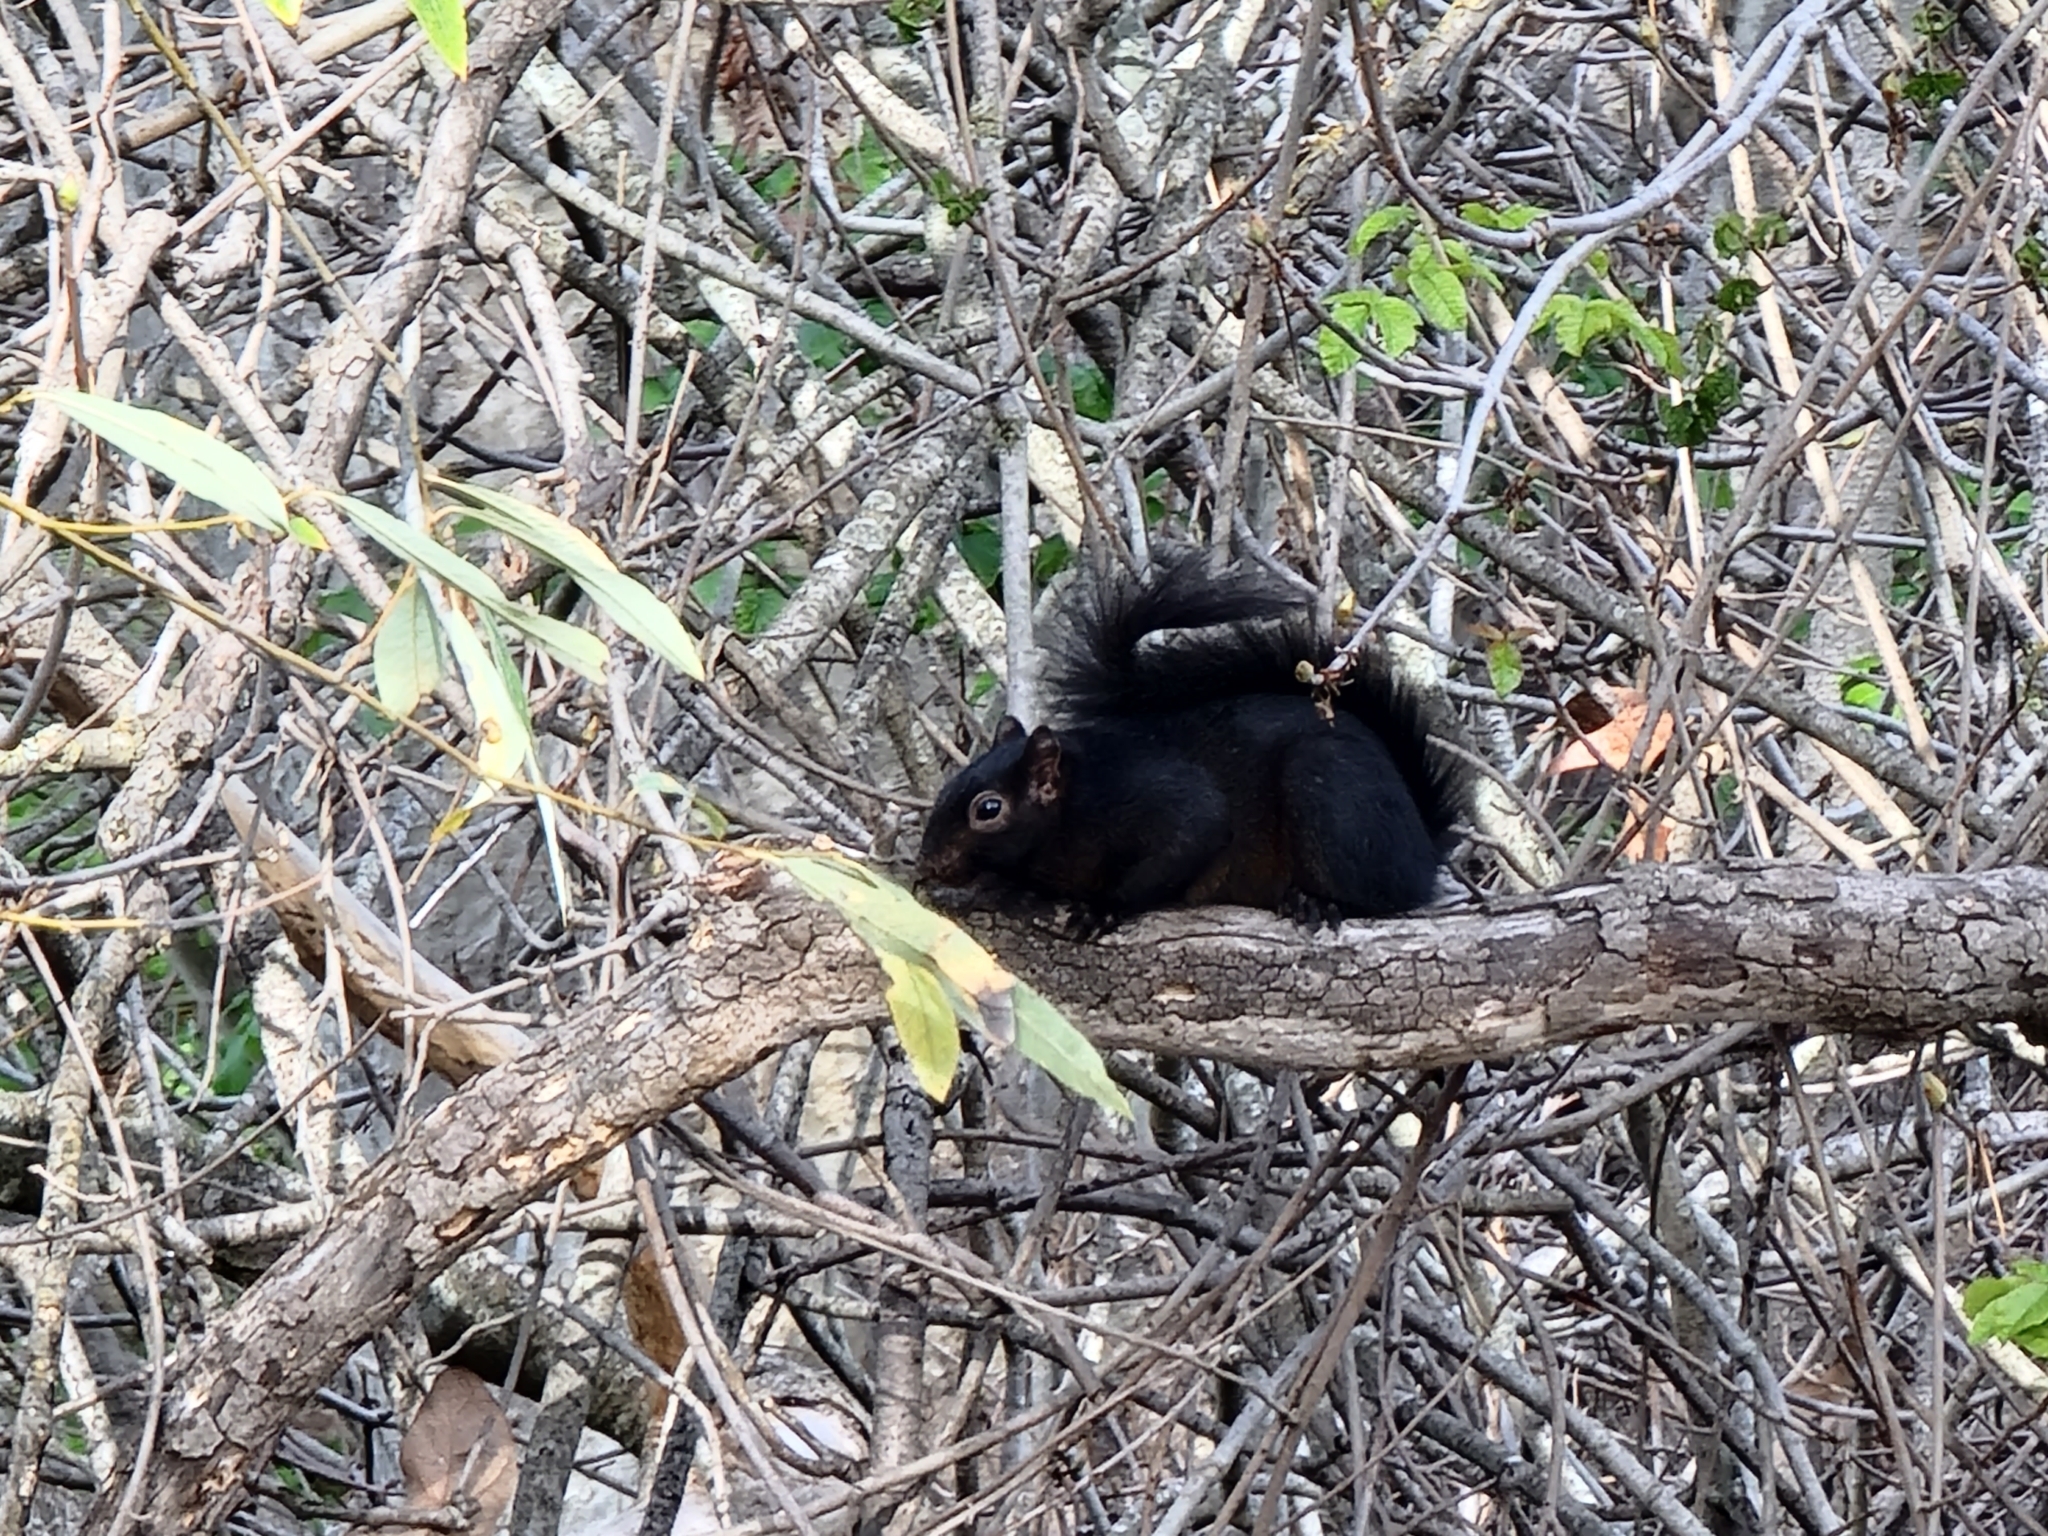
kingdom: Animalia
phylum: Chordata
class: Mammalia
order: Rodentia
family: Sciuridae
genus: Sciurus
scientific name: Sciurus carolinensis
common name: Eastern gray squirrel
